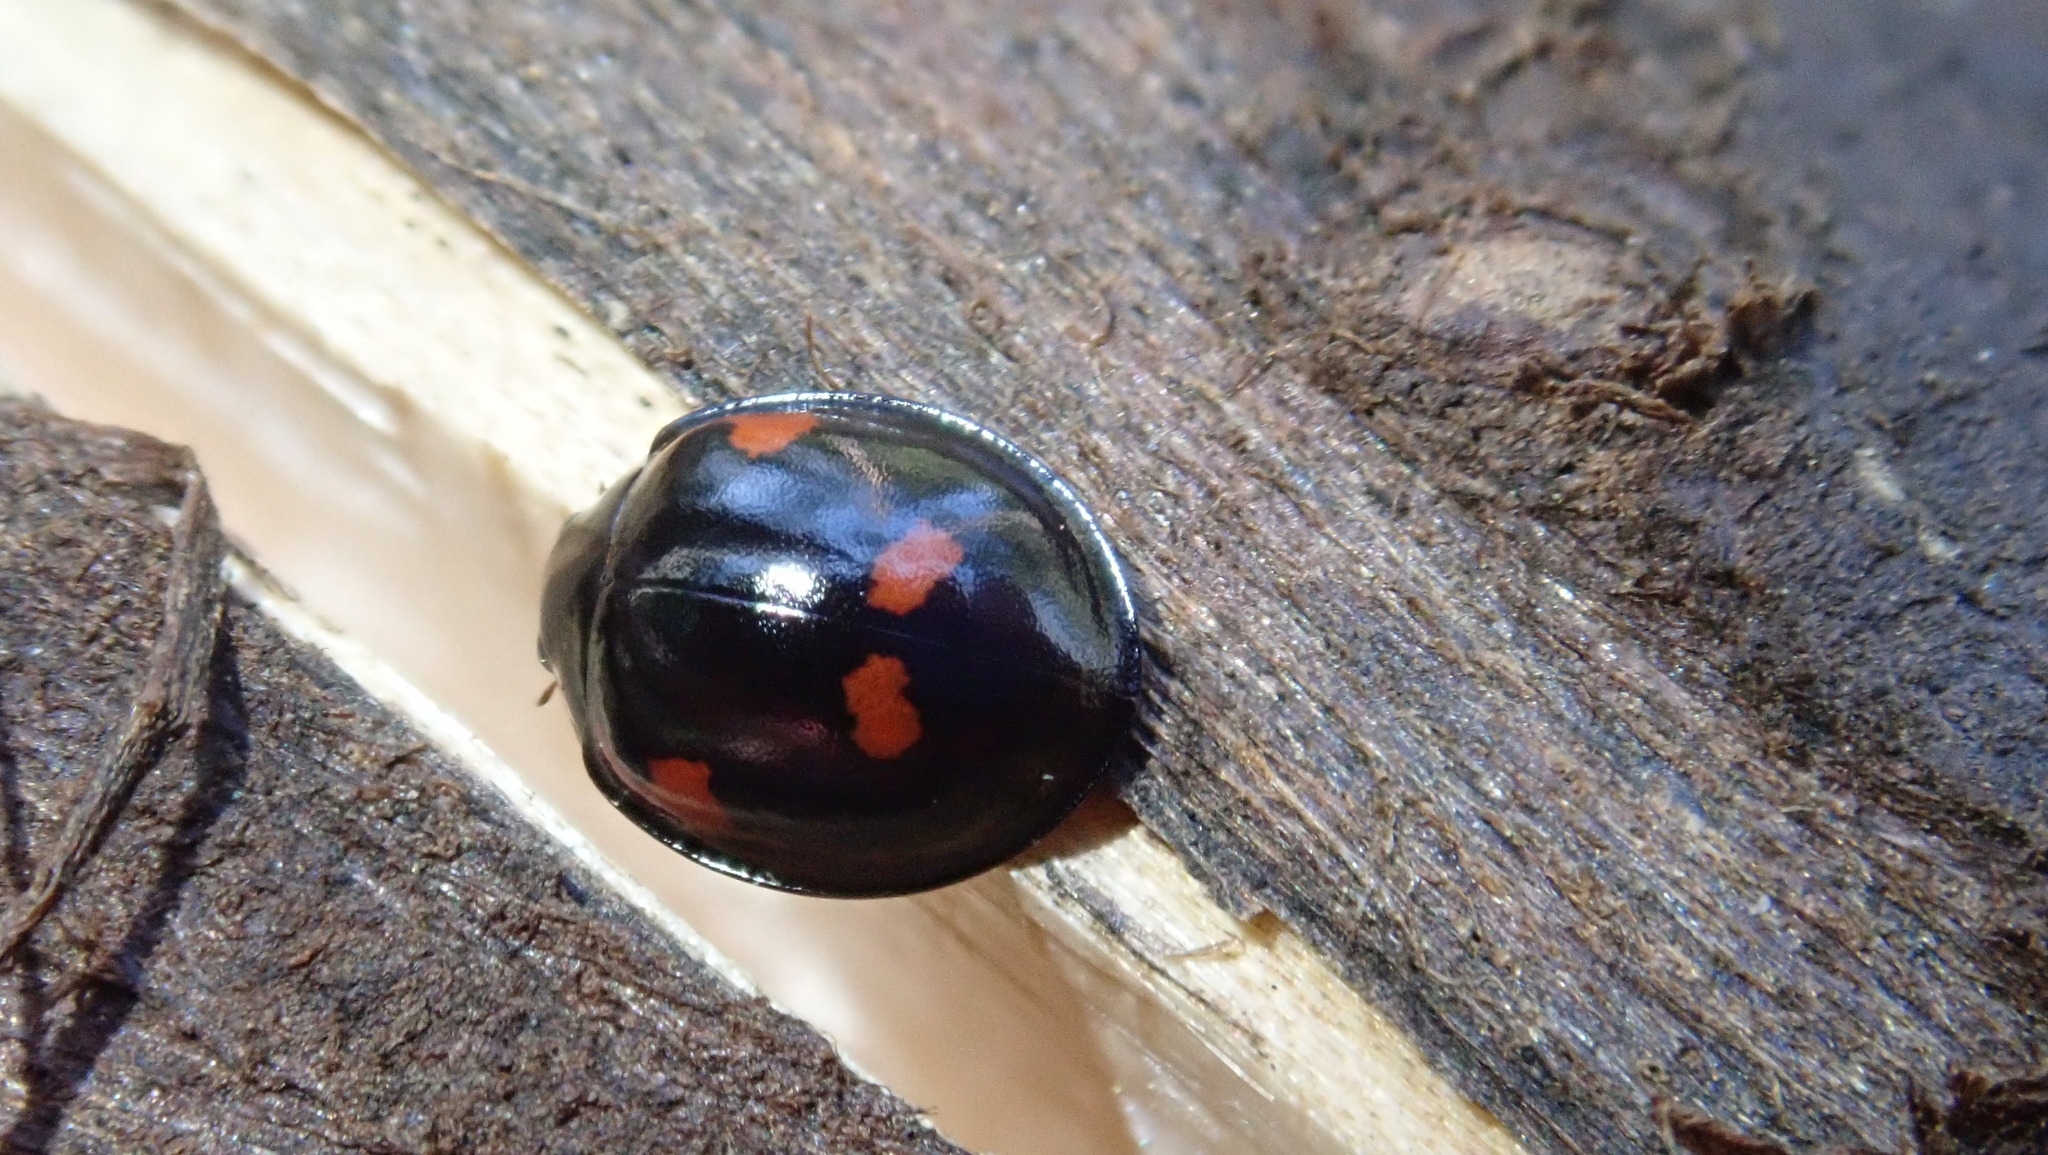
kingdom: Animalia
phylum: Arthropoda
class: Insecta
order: Coleoptera
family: Coccinellidae
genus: Brumus
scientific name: Brumus quadripustulatus
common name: Ladybird beetle
